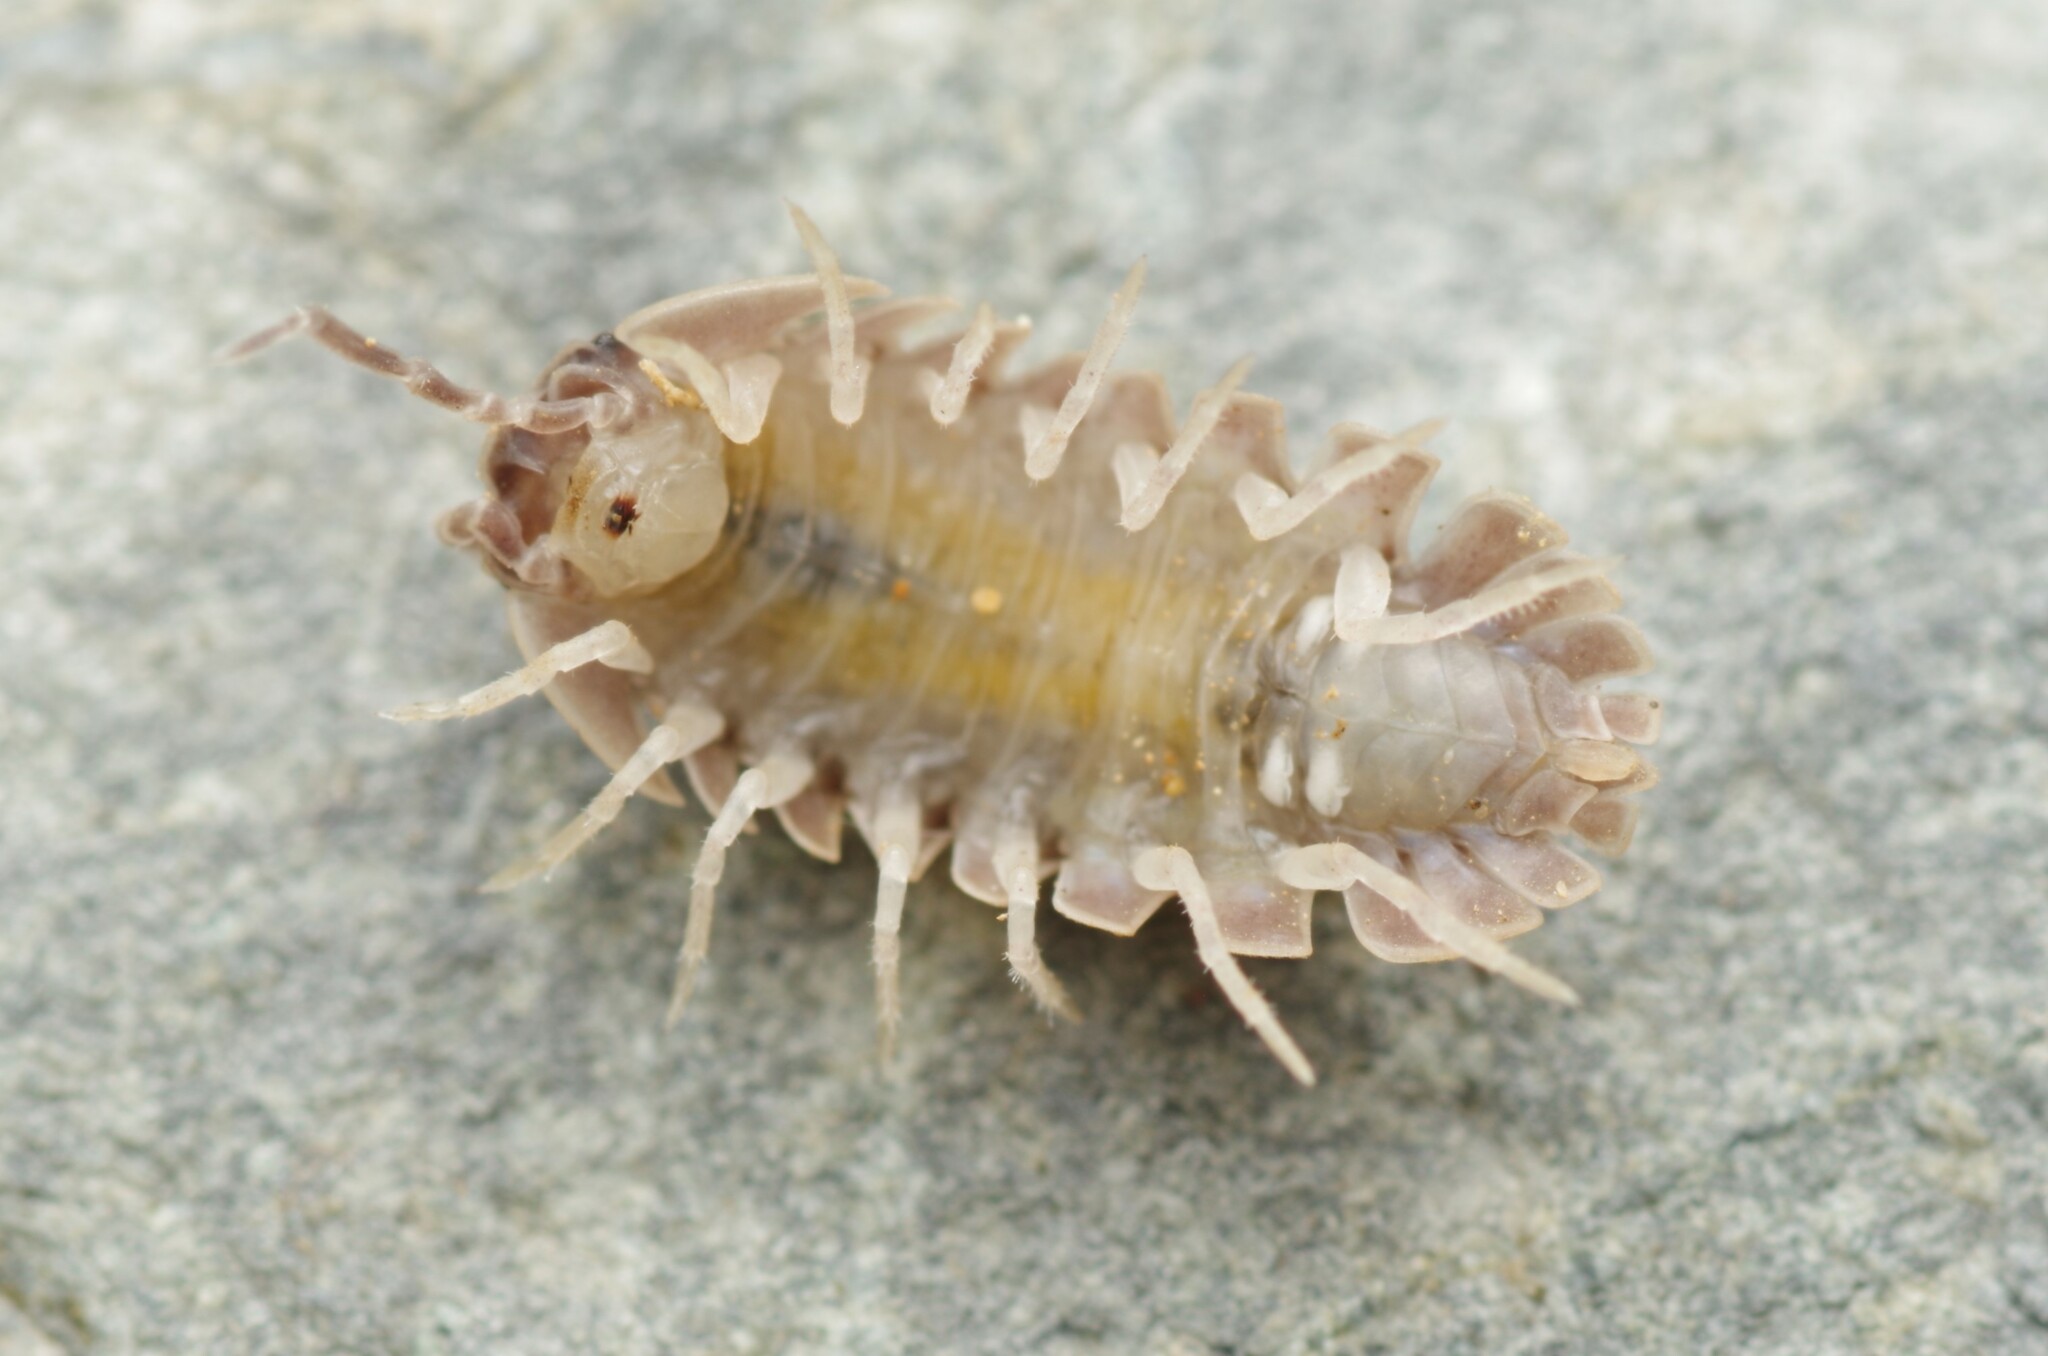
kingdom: Animalia
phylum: Arthropoda
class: Malacostraca
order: Isopoda
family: Armadillidiidae
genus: Armadillidium
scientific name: Armadillidium serratum
